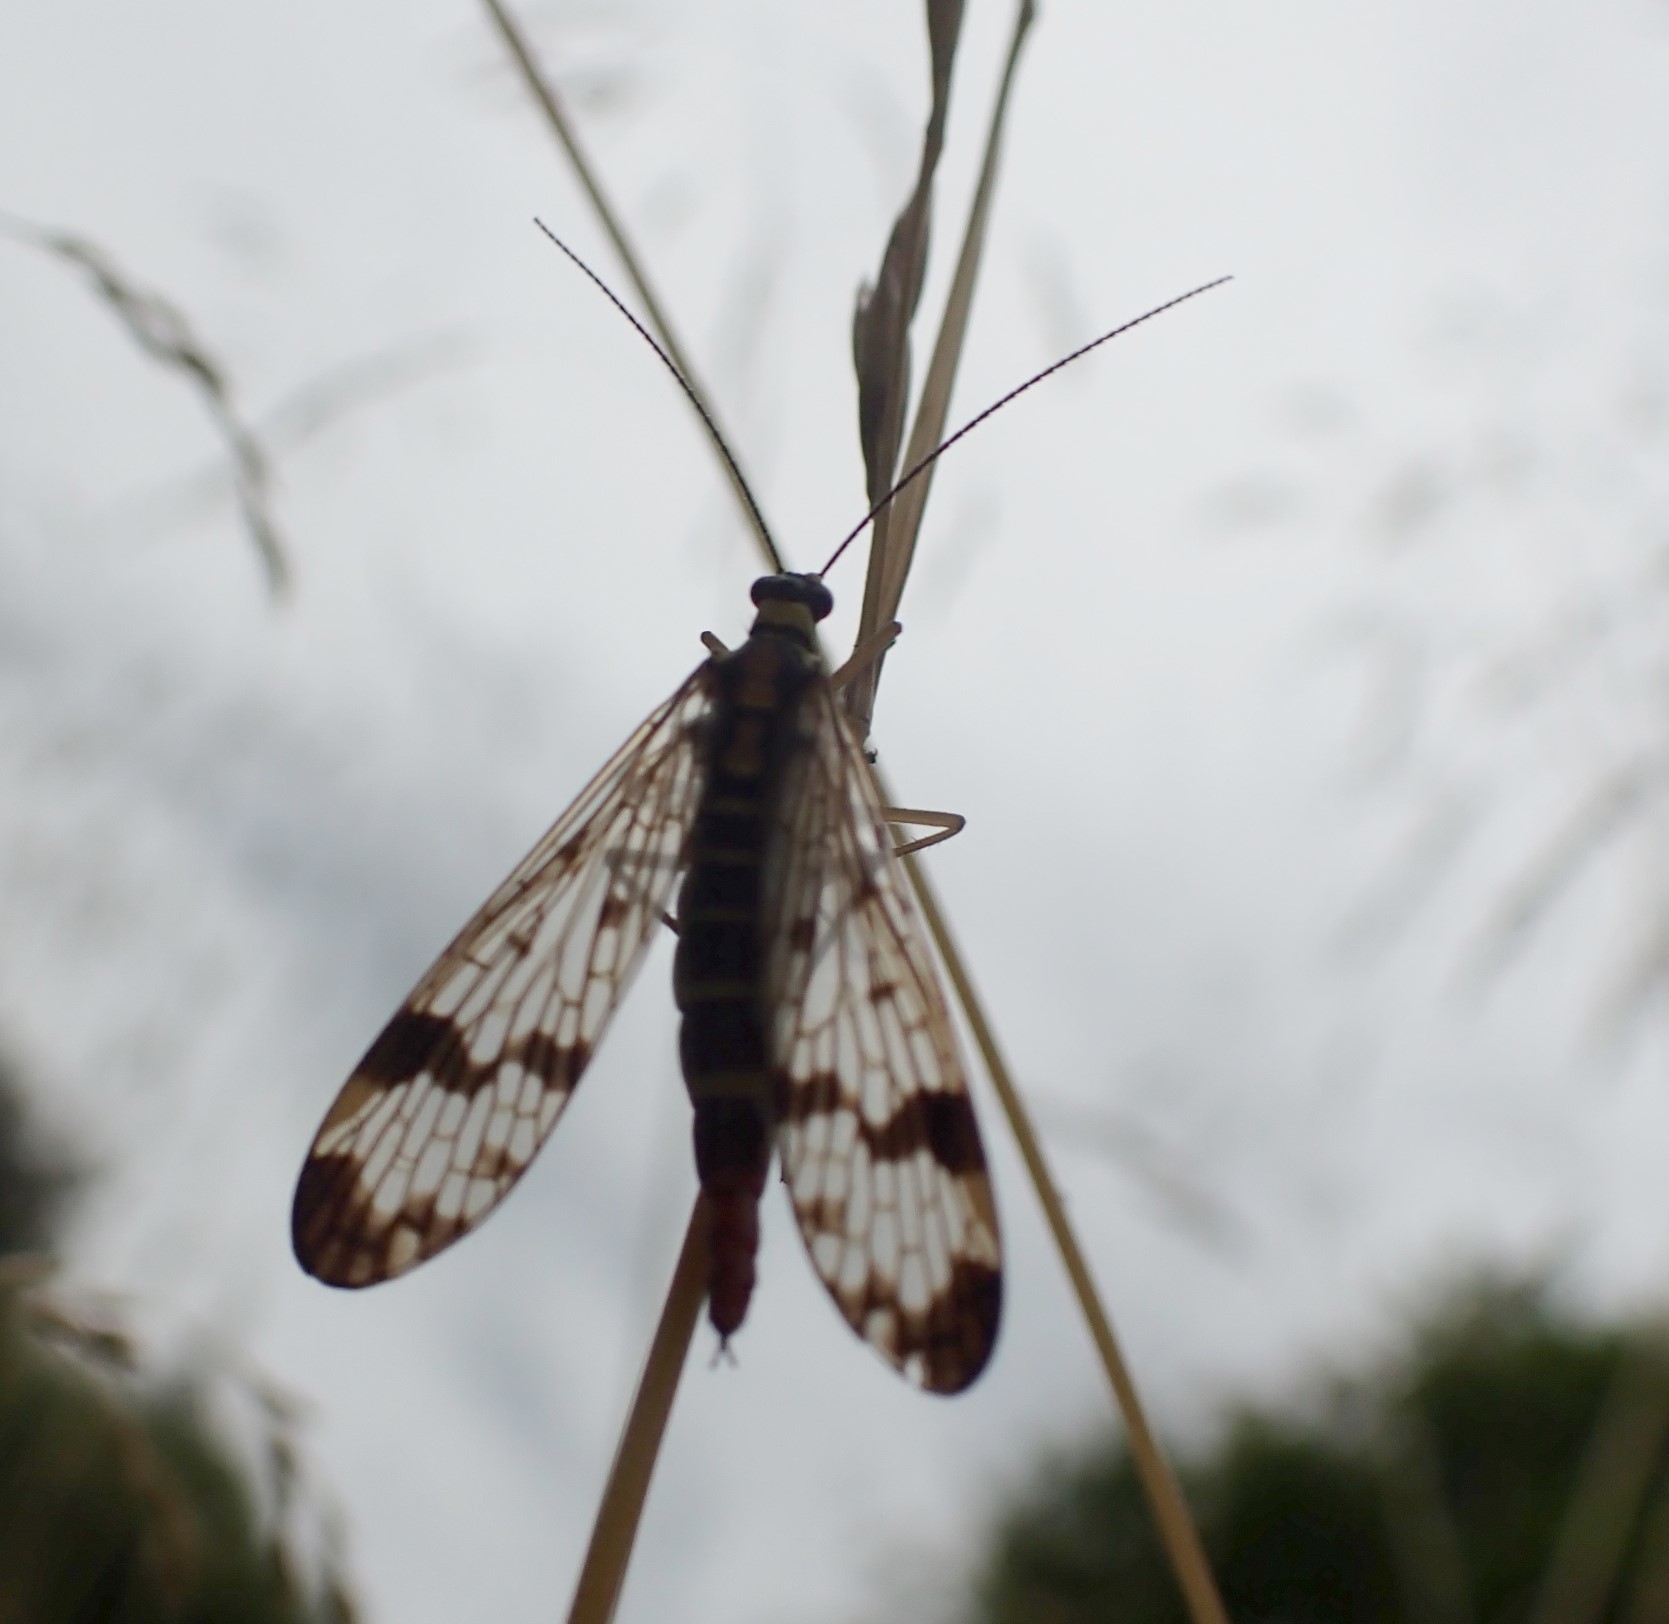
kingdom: Animalia
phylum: Arthropoda
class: Insecta
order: Mecoptera
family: Panorpidae
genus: Panorpa
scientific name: Panorpa communis
